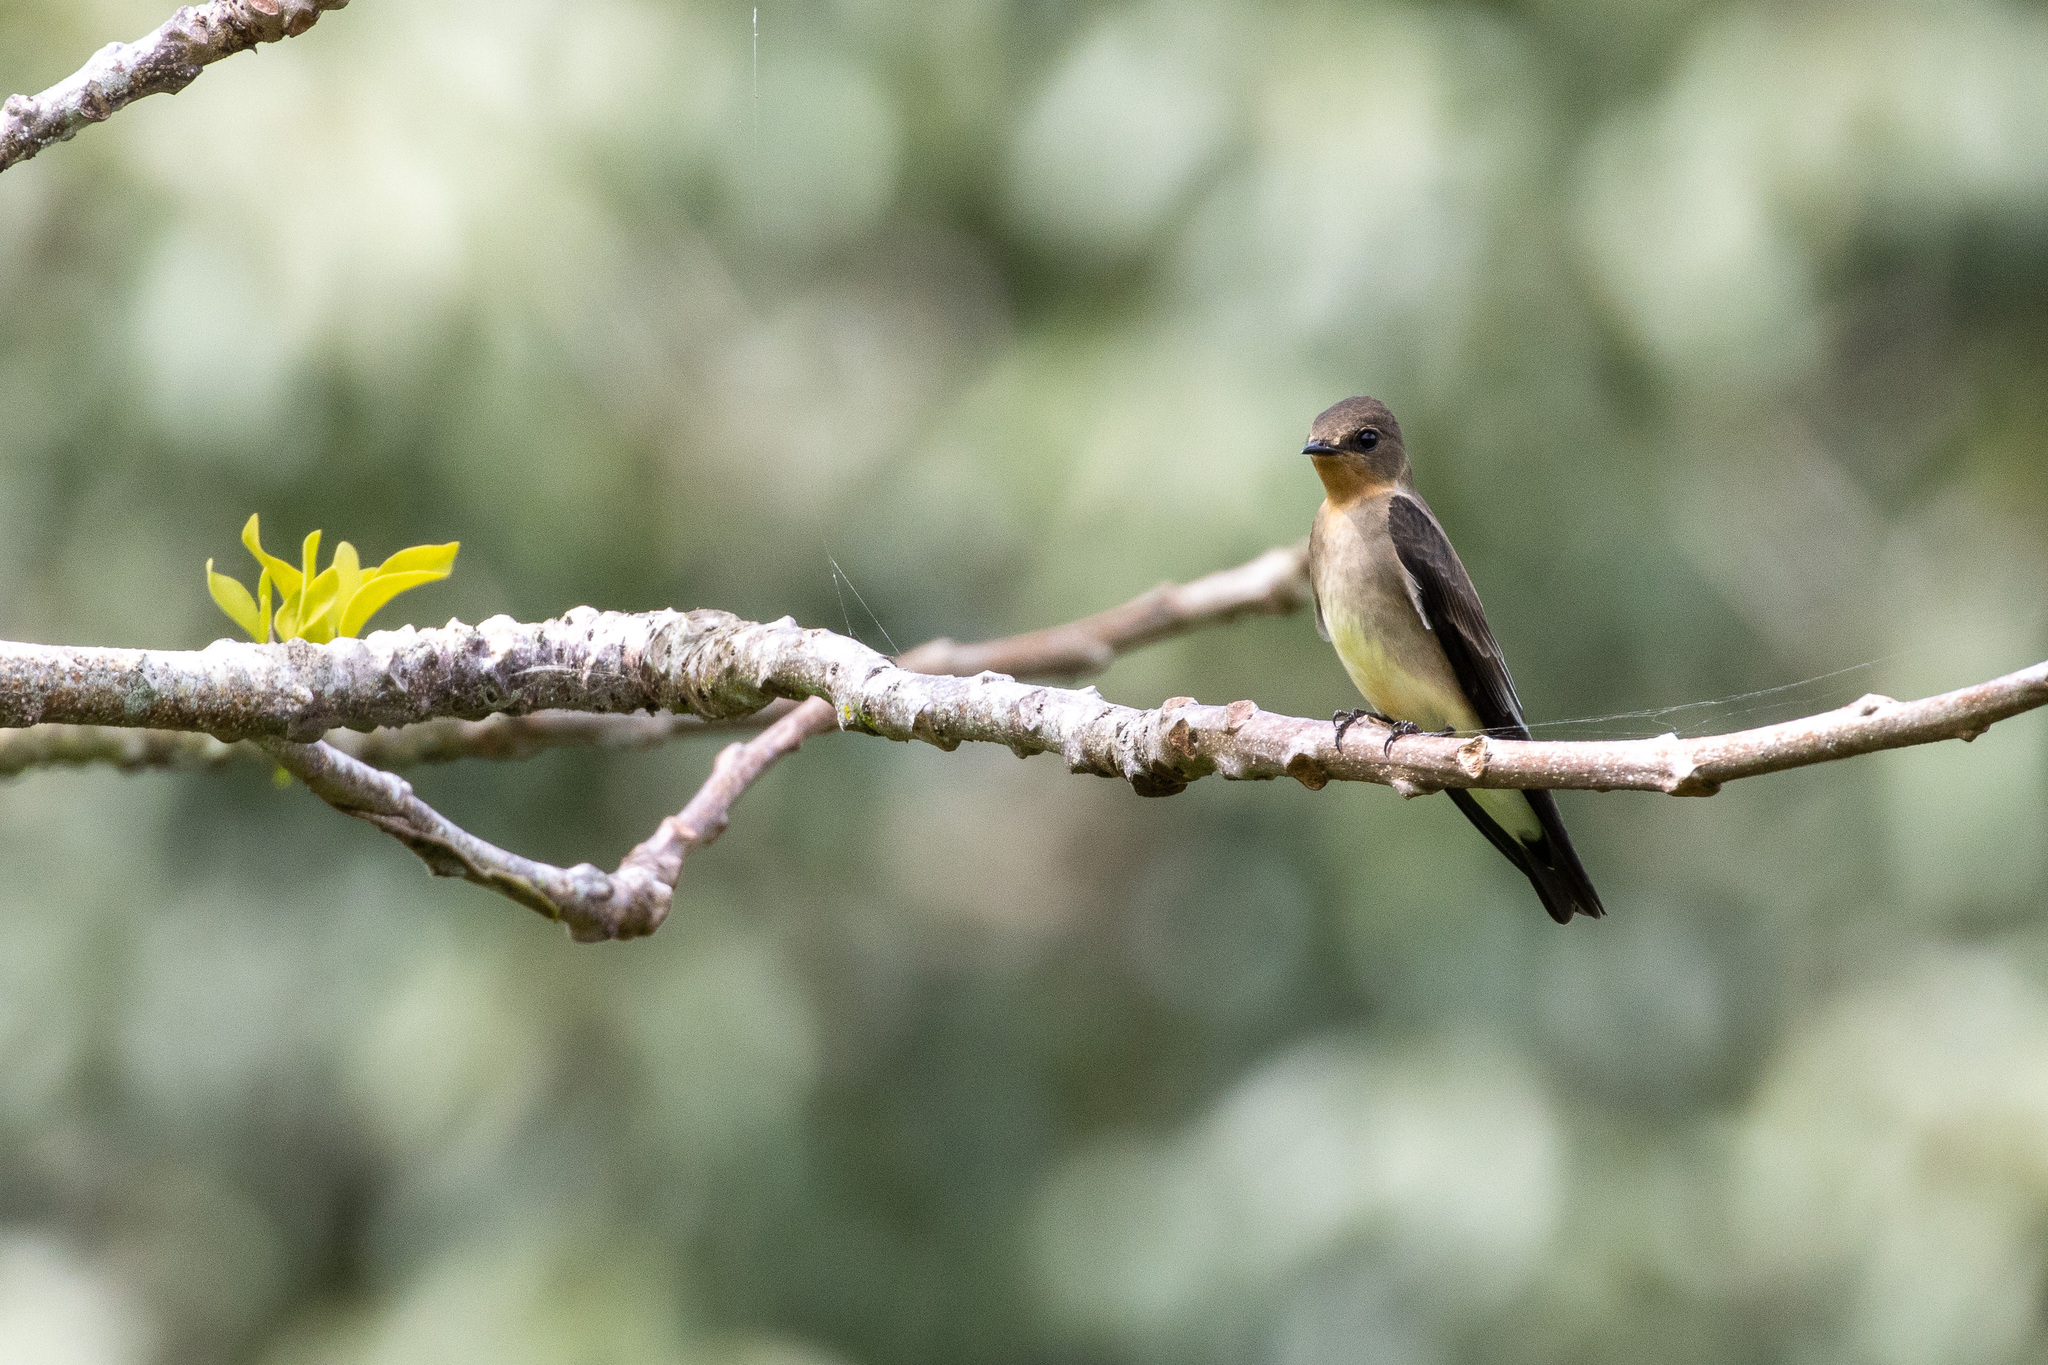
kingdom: Animalia
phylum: Chordata
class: Aves
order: Passeriformes
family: Hirundinidae
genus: Stelgidopteryx
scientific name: Stelgidopteryx ruficollis
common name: Southern rough-winged swallow
